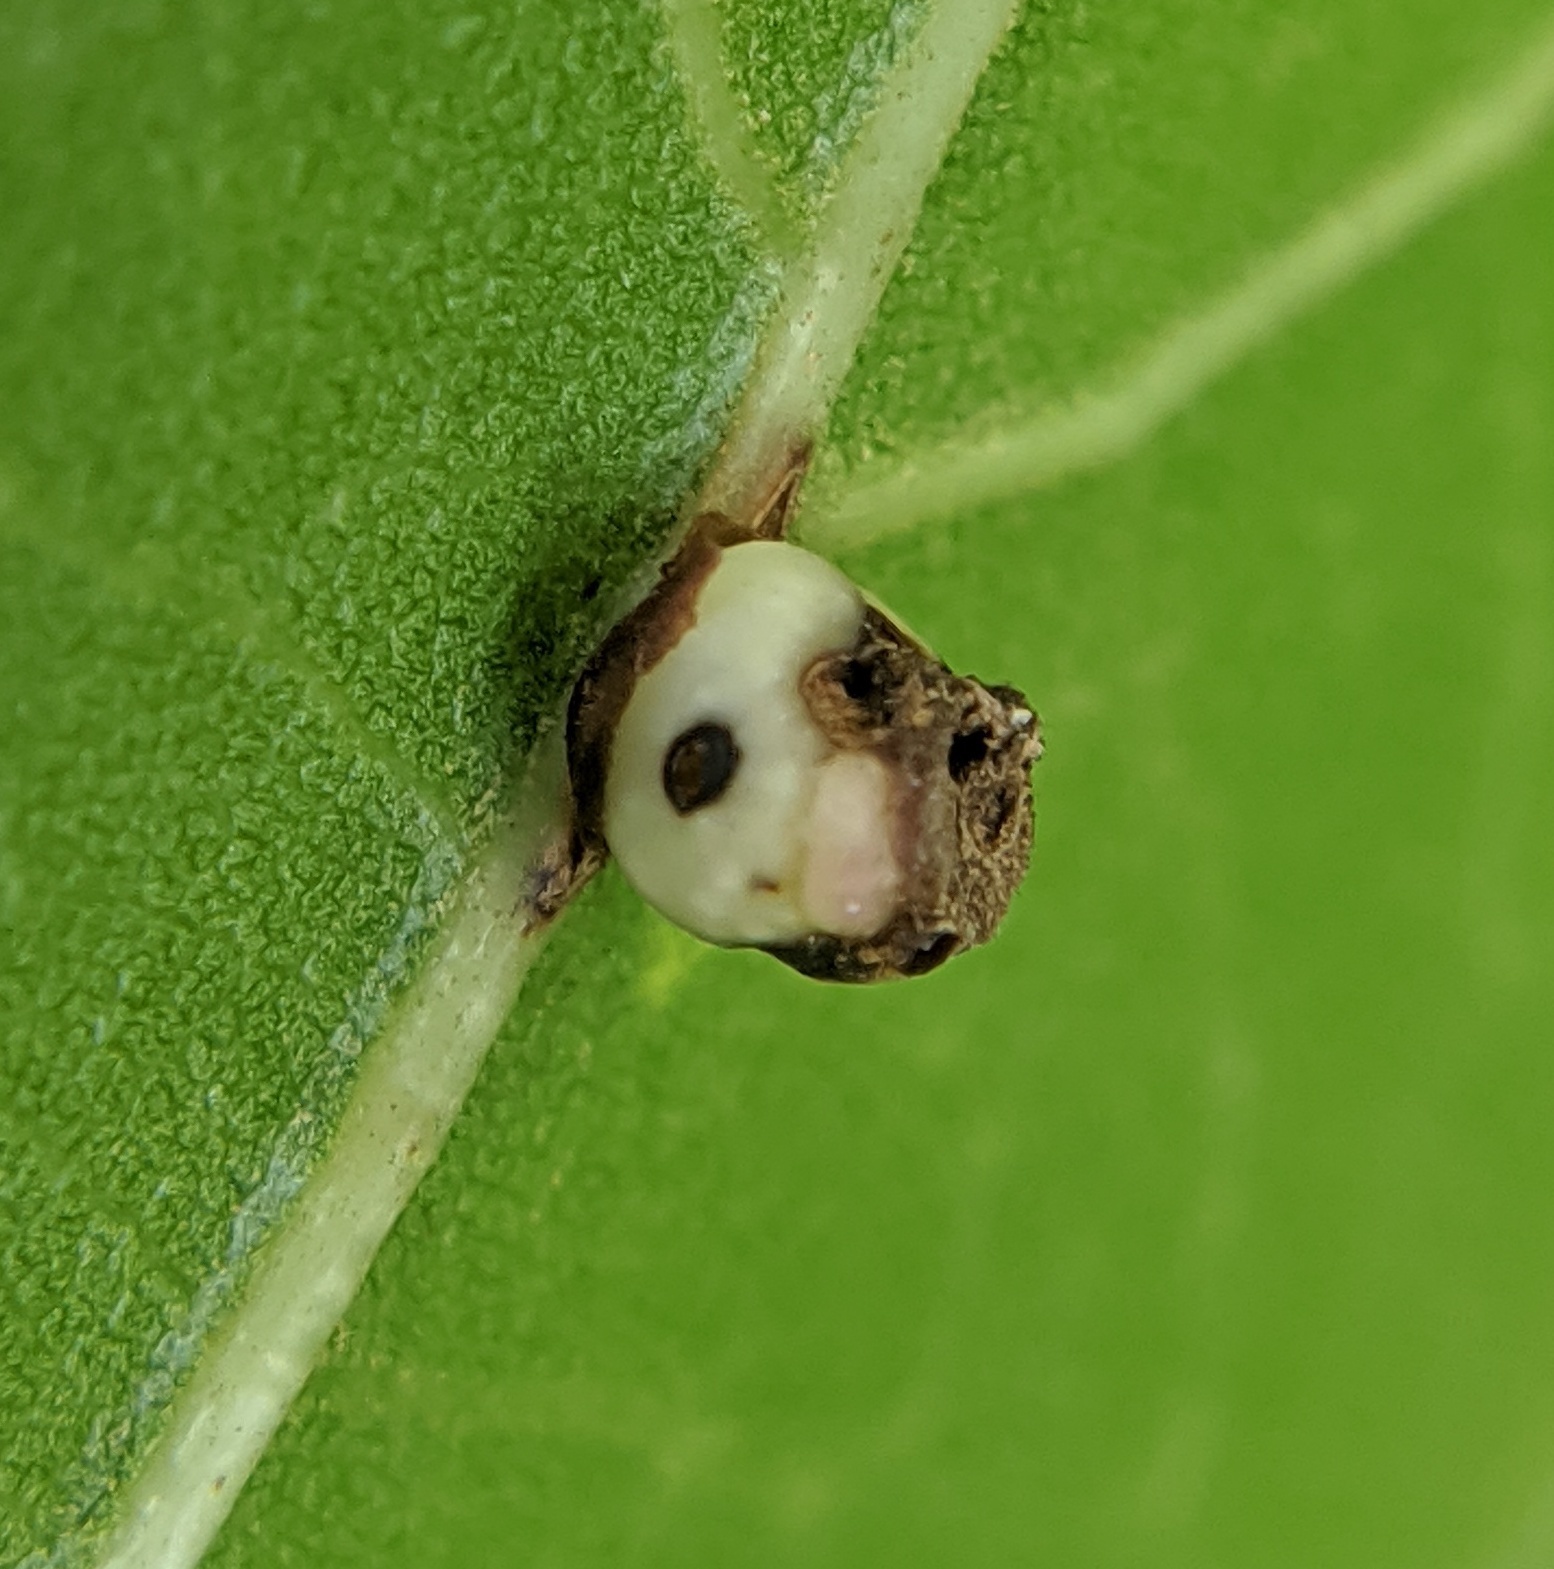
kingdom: Animalia
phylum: Arthropoda
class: Insecta
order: Hymenoptera
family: Cynipidae
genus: Kokkocynips
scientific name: Kokkocynips rileyi
